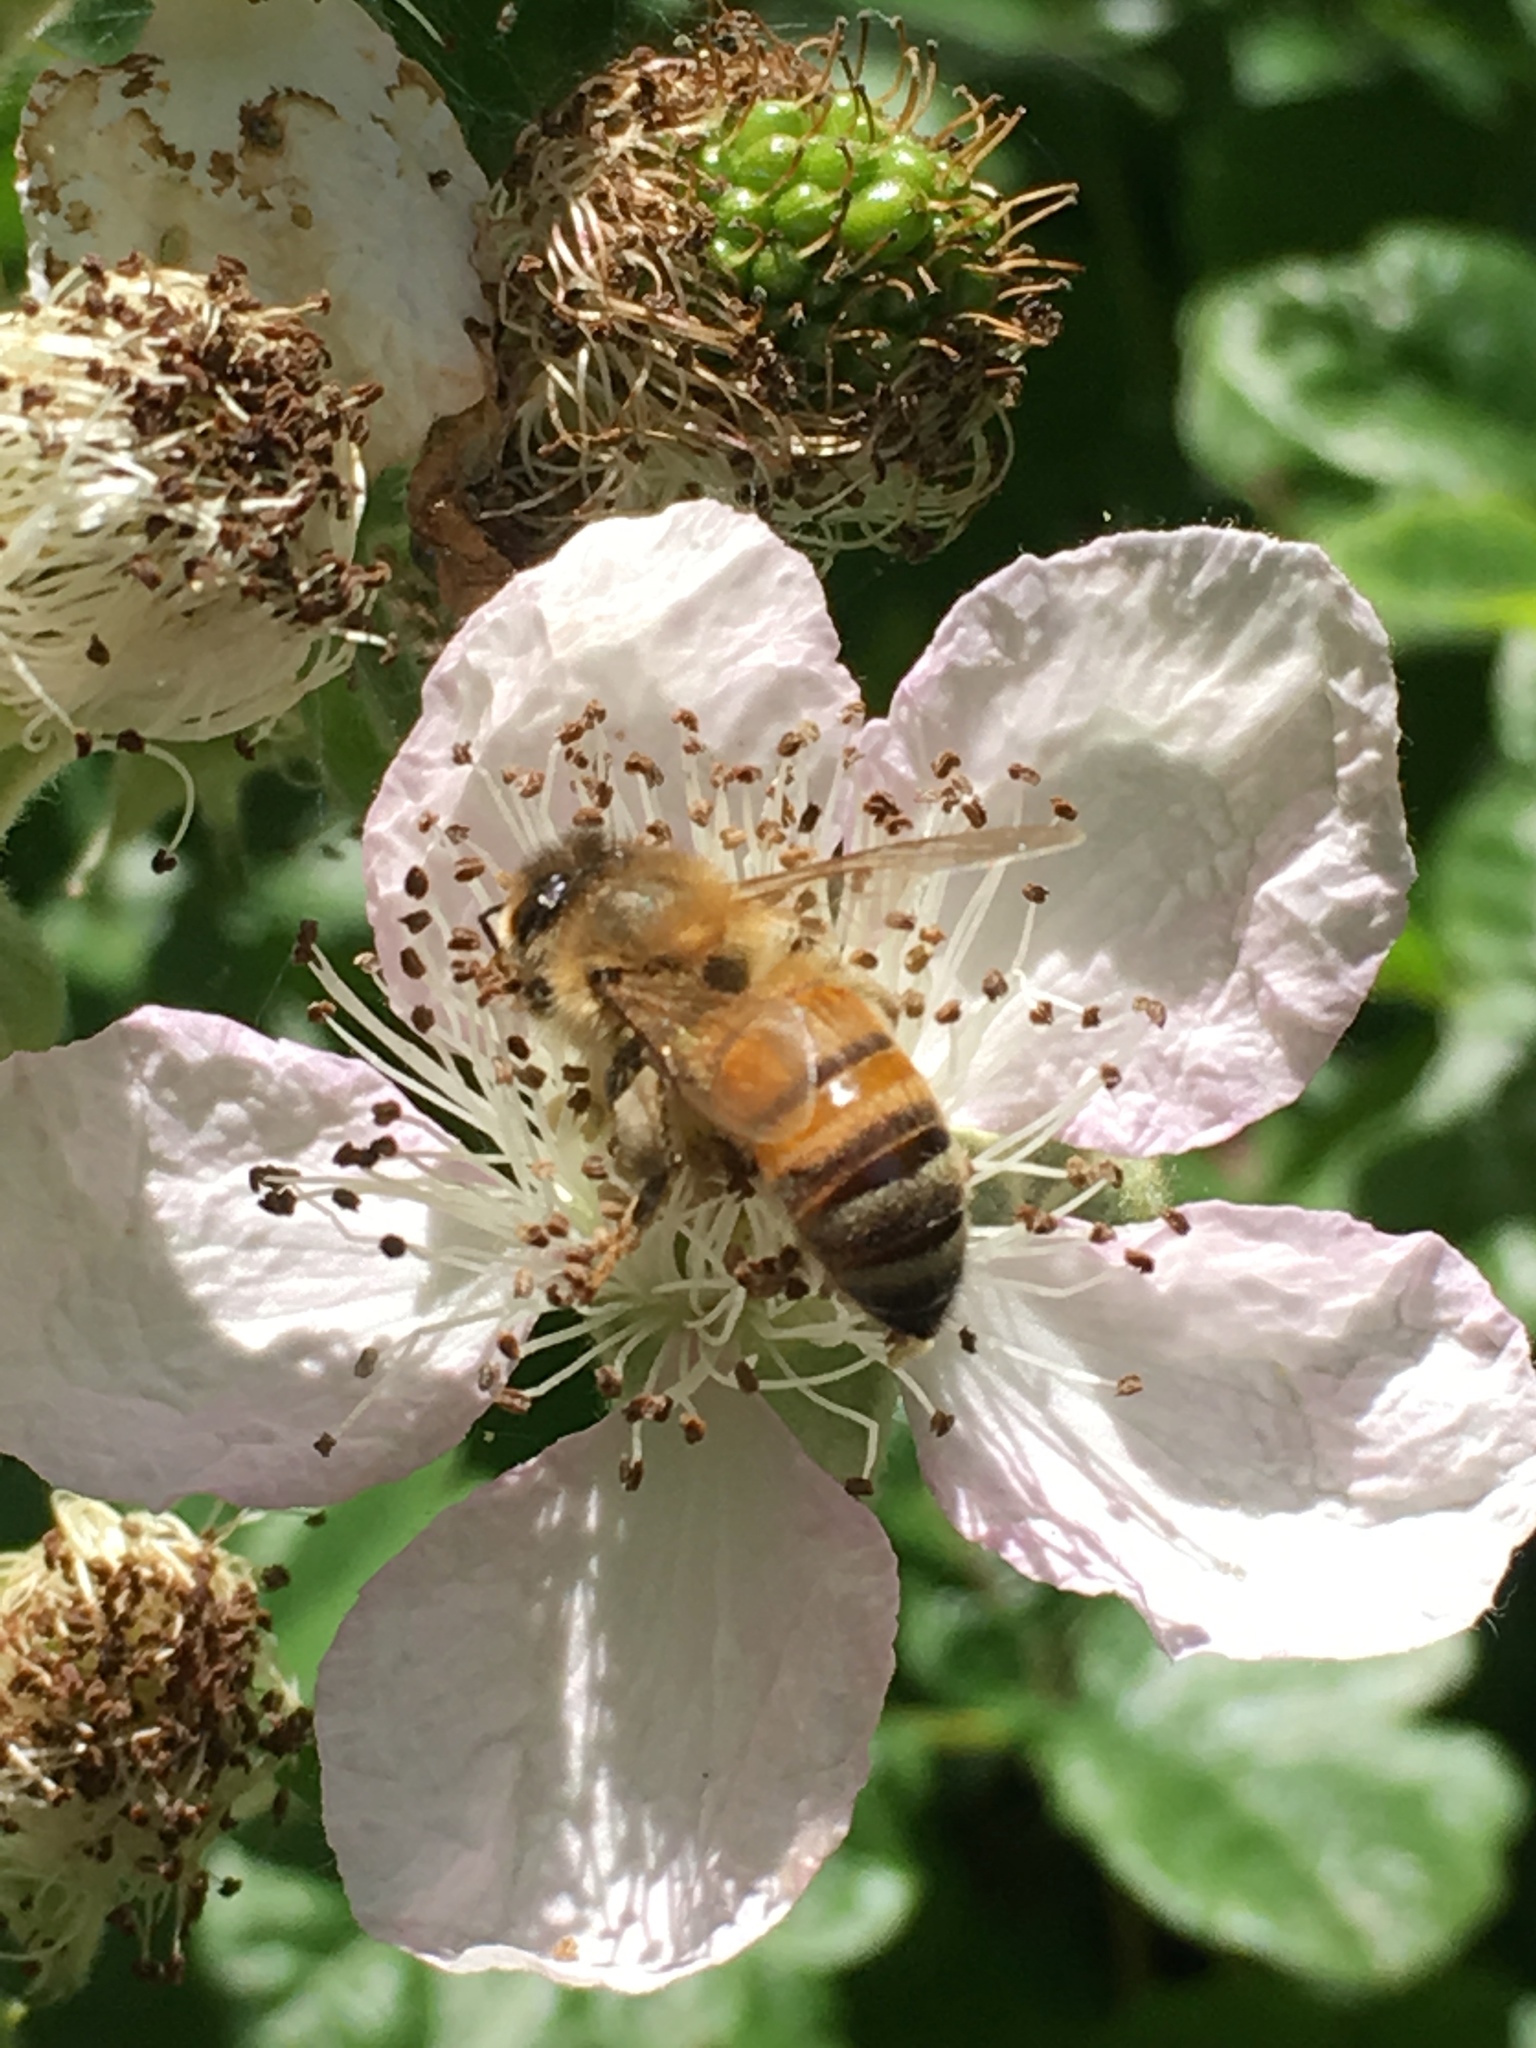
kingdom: Animalia
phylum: Arthropoda
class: Insecta
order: Hymenoptera
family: Apidae
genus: Apis
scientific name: Apis mellifera
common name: Honey bee
